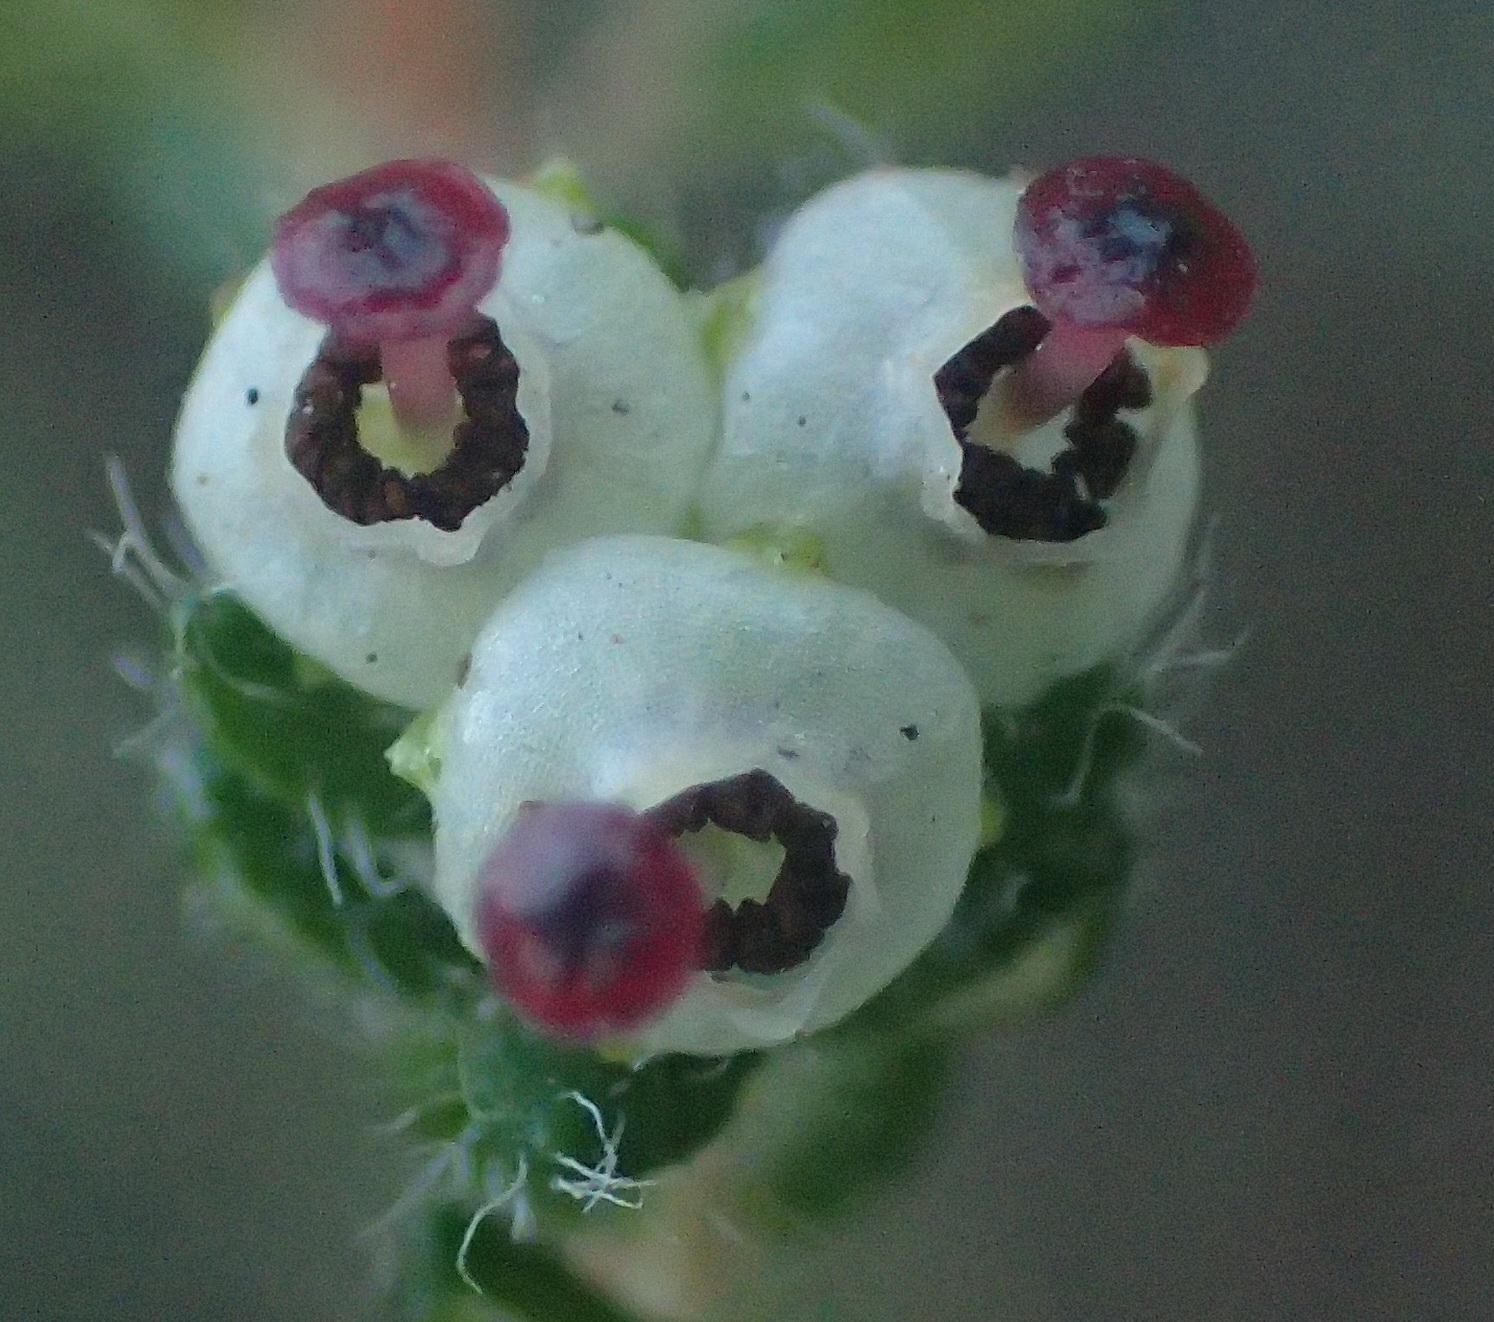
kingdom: Plantae
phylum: Tracheophyta
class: Magnoliopsida
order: Ericales
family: Ericaceae
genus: Erica
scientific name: Erica cordata
